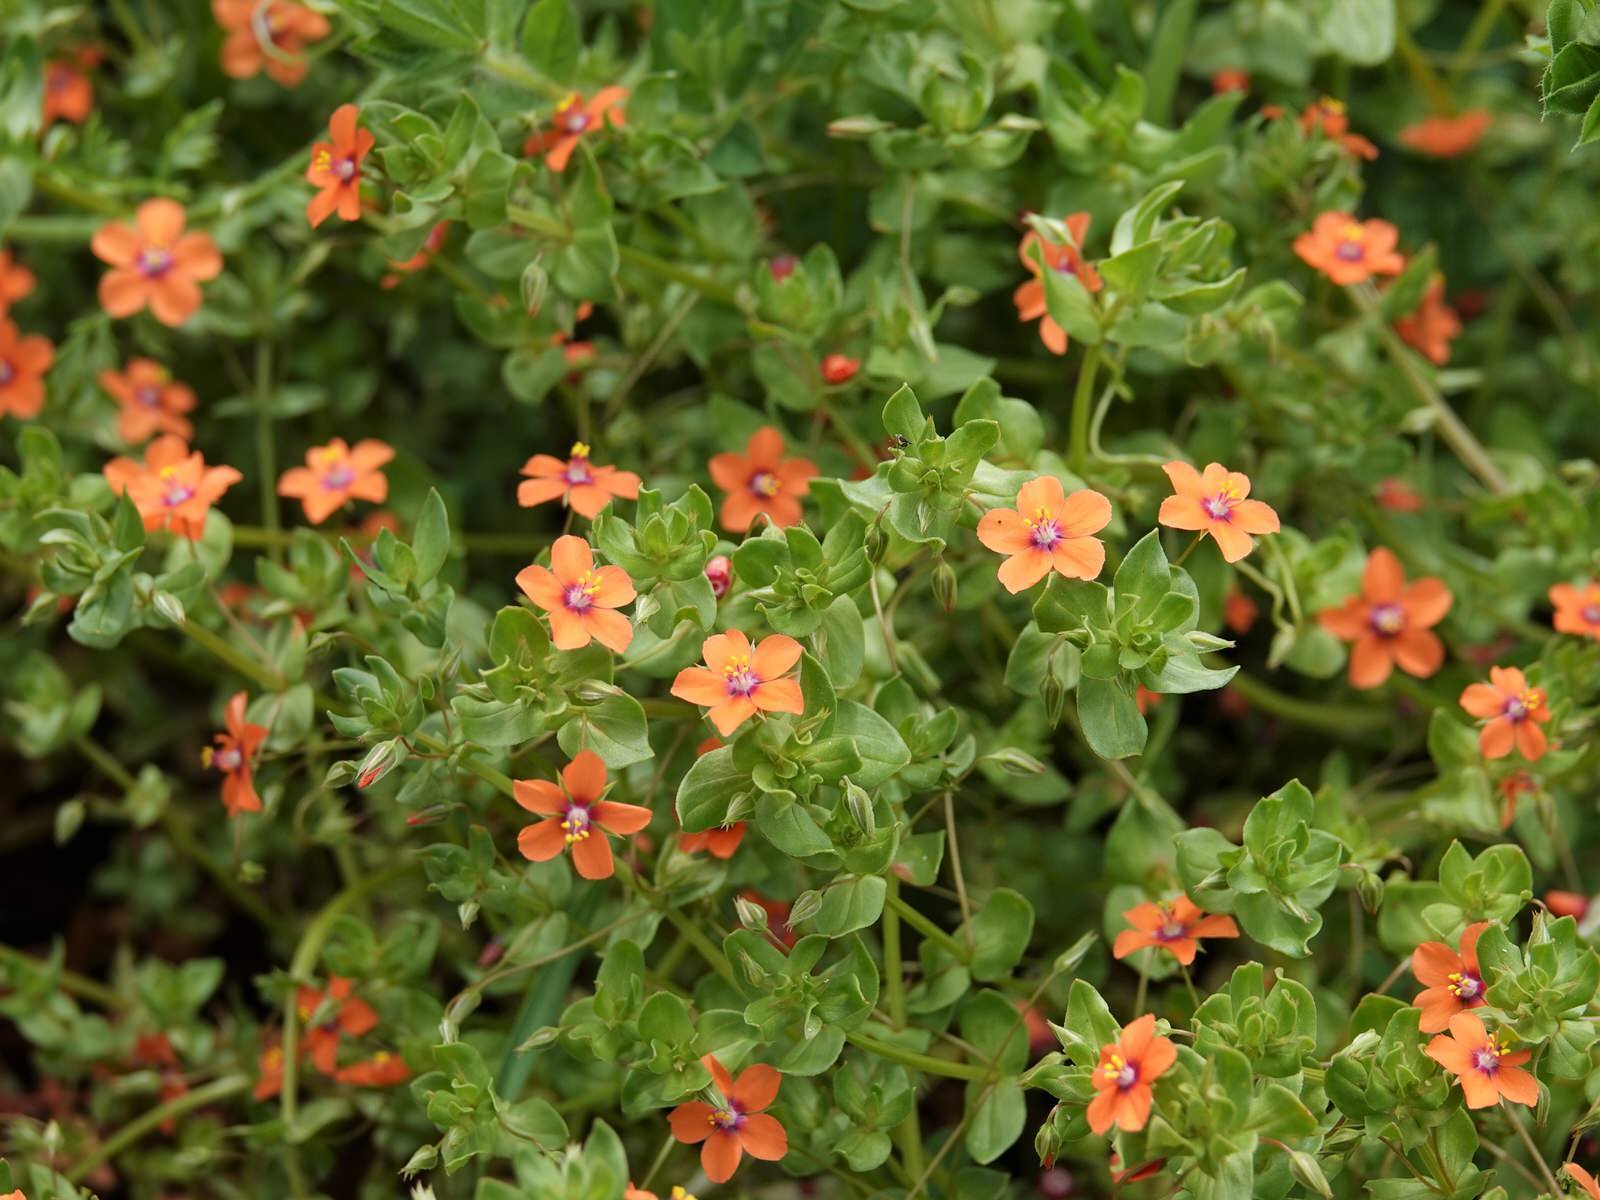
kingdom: Plantae
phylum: Tracheophyta
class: Magnoliopsida
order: Ericales
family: Primulaceae
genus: Lysimachia
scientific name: Lysimachia arvensis
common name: Scarlet pimpernel
